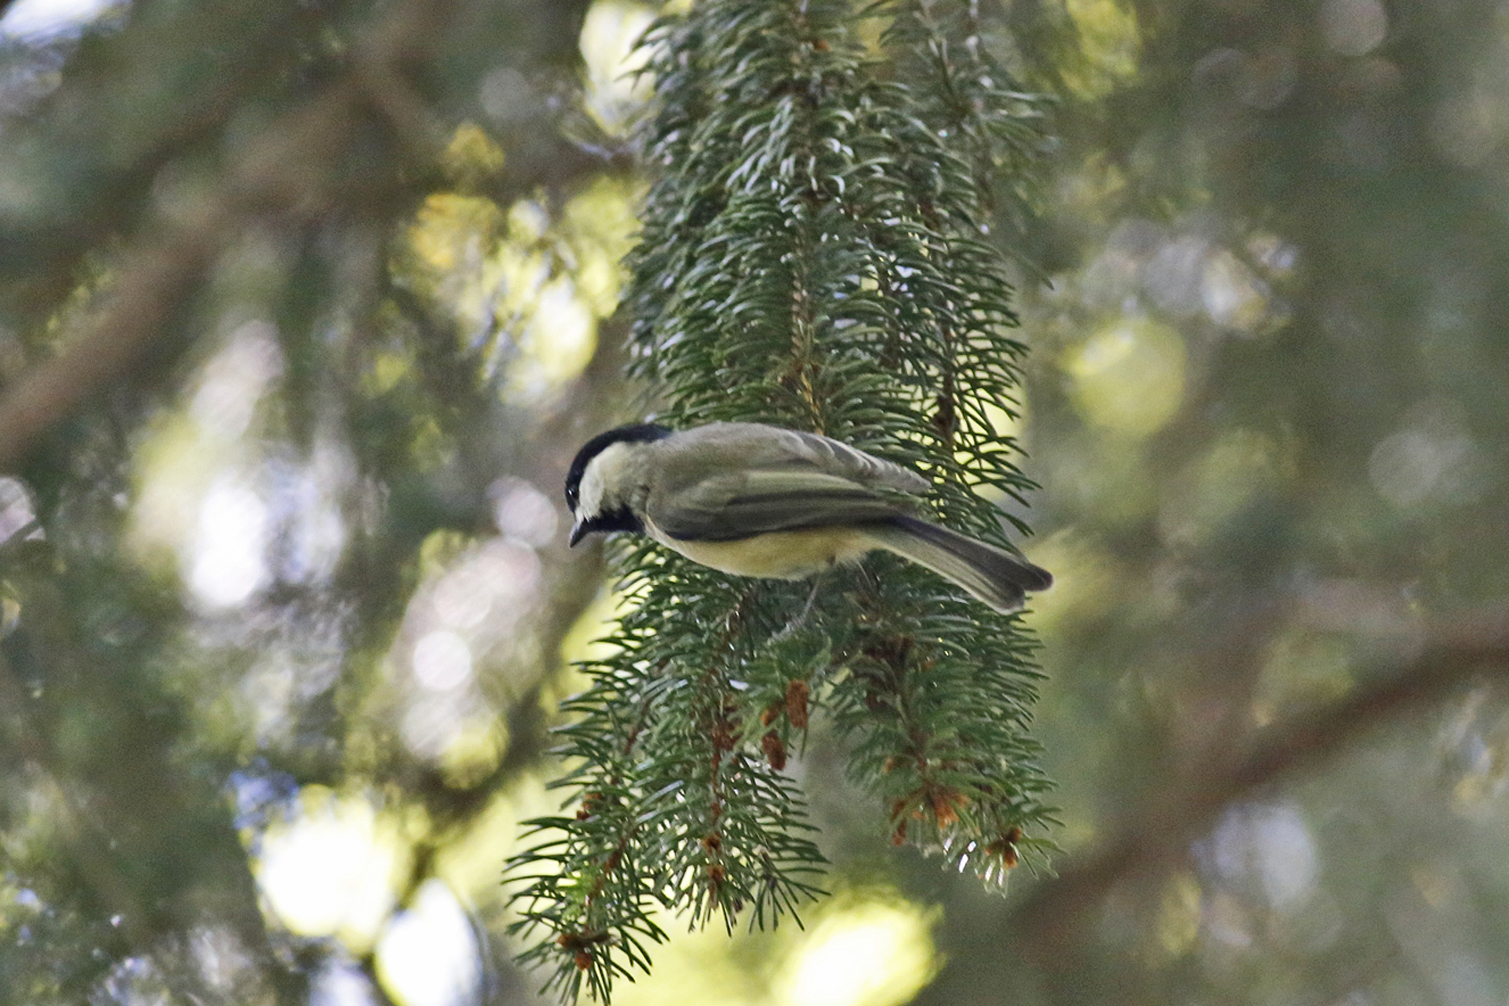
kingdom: Animalia
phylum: Chordata
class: Aves
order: Passeriformes
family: Paridae
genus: Poecile
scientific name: Poecile carolinensis
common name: Carolina chickadee
